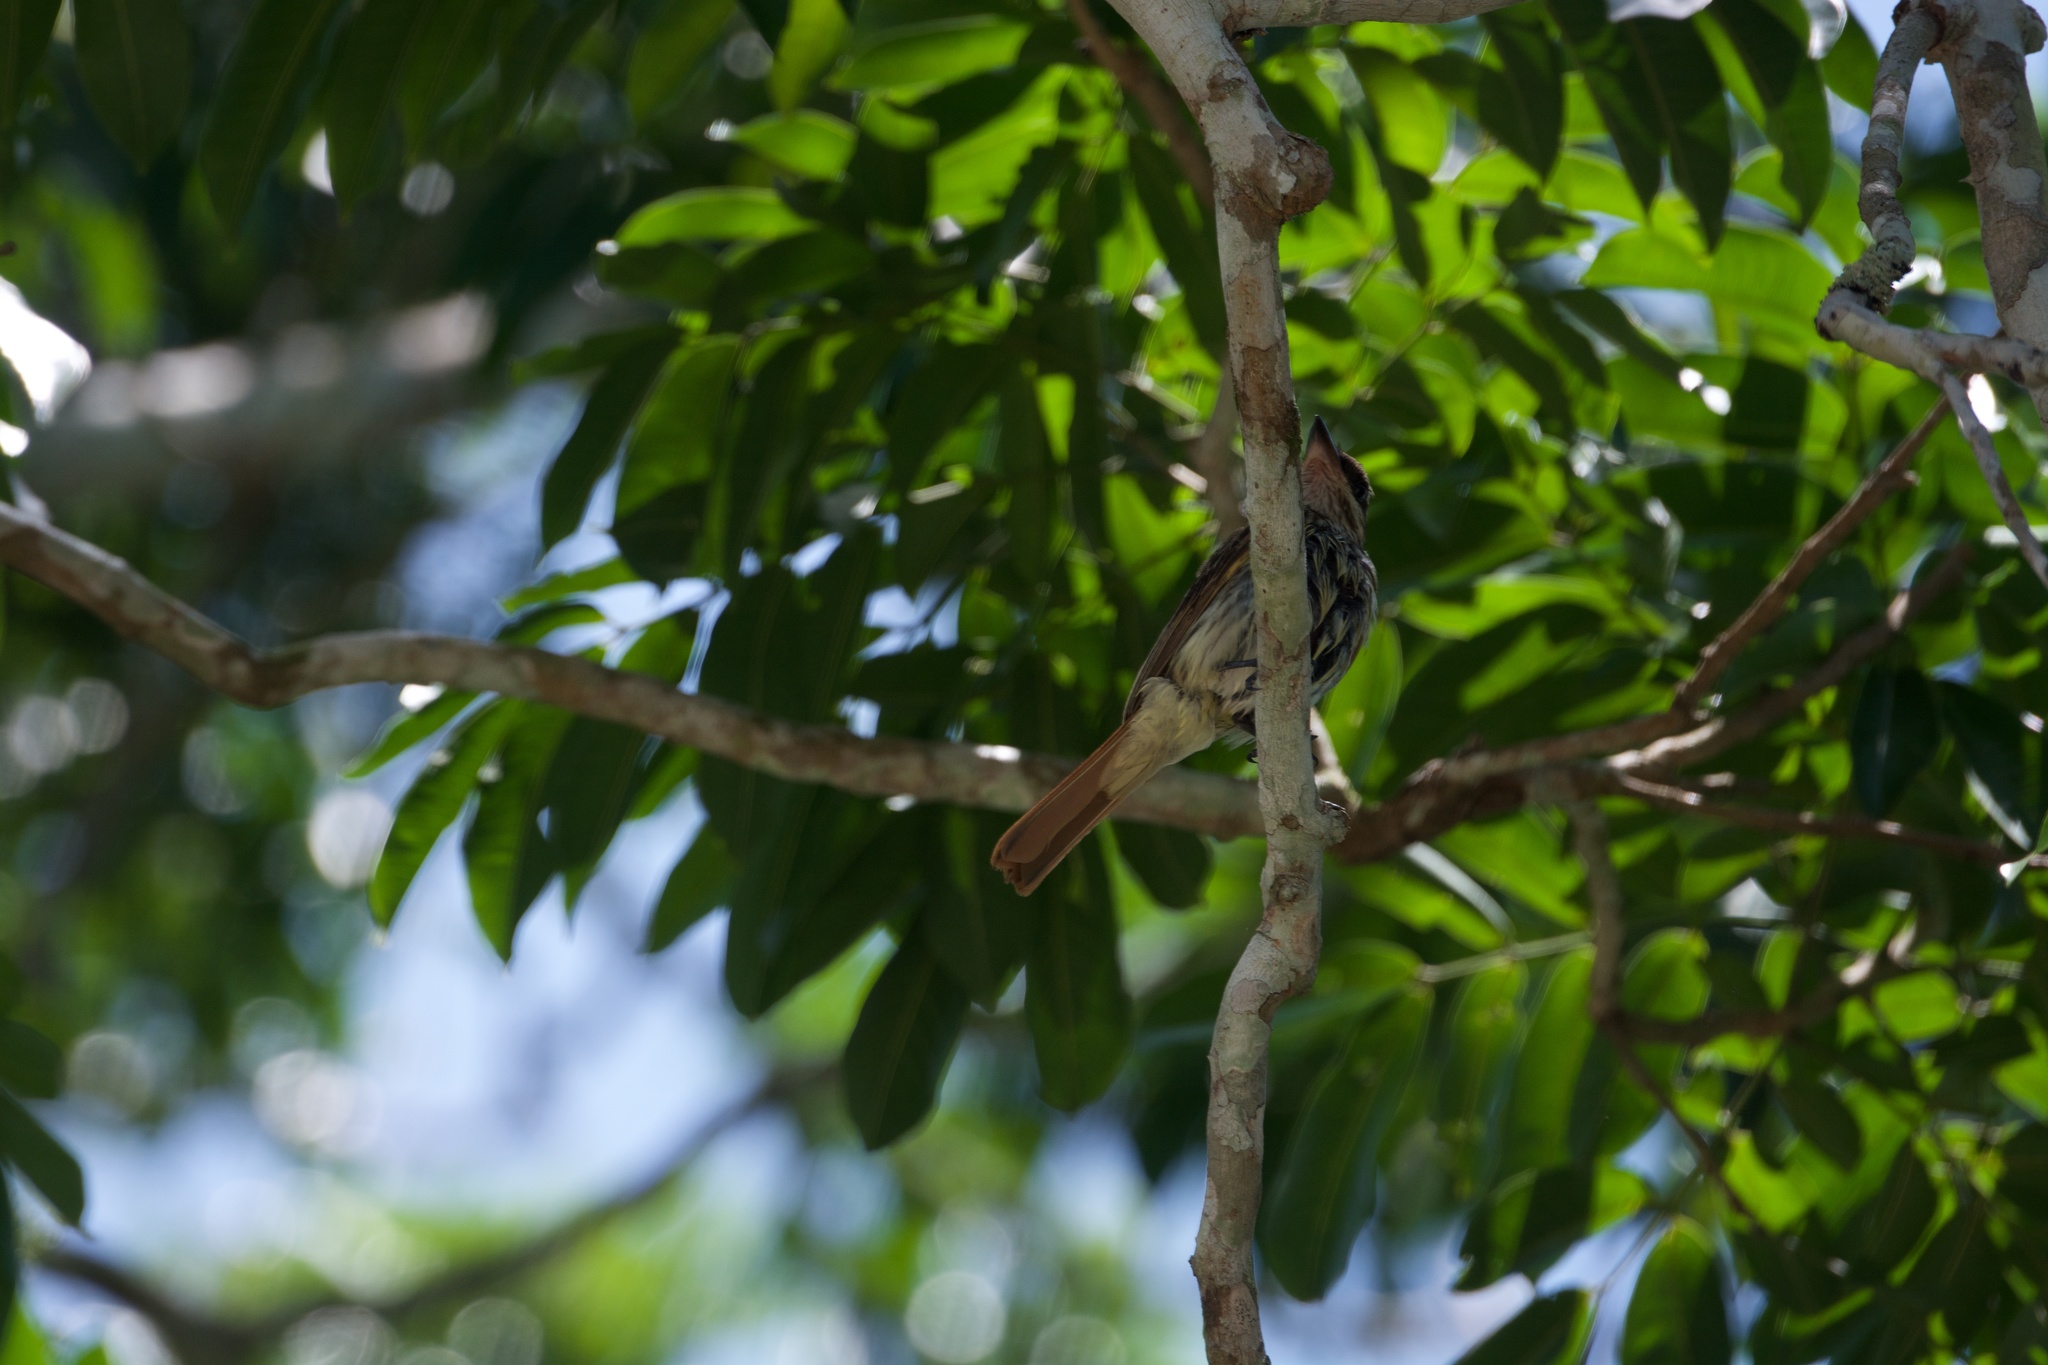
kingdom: Animalia
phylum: Chordata
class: Aves
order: Passeriformes
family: Tyrannidae
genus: Myiodynastes
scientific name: Myiodynastes maculatus
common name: Streaked flycatcher
